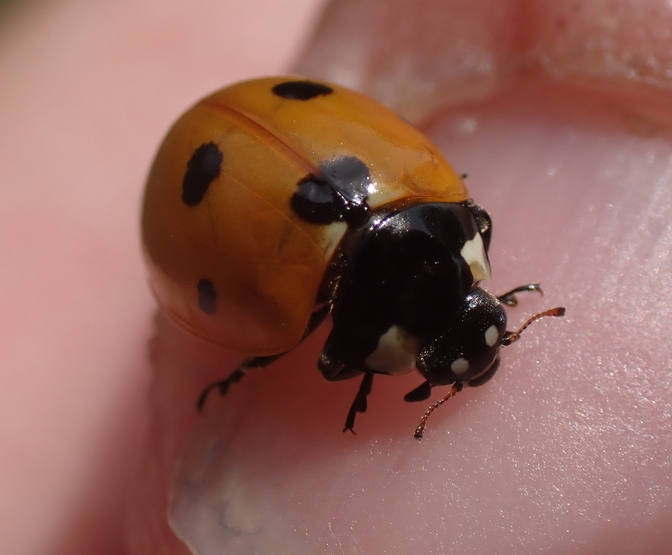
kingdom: Animalia
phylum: Arthropoda
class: Insecta
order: Coleoptera
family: Coccinellidae
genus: Coccinella
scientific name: Coccinella septempunctata
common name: Sevenspotted lady beetle
